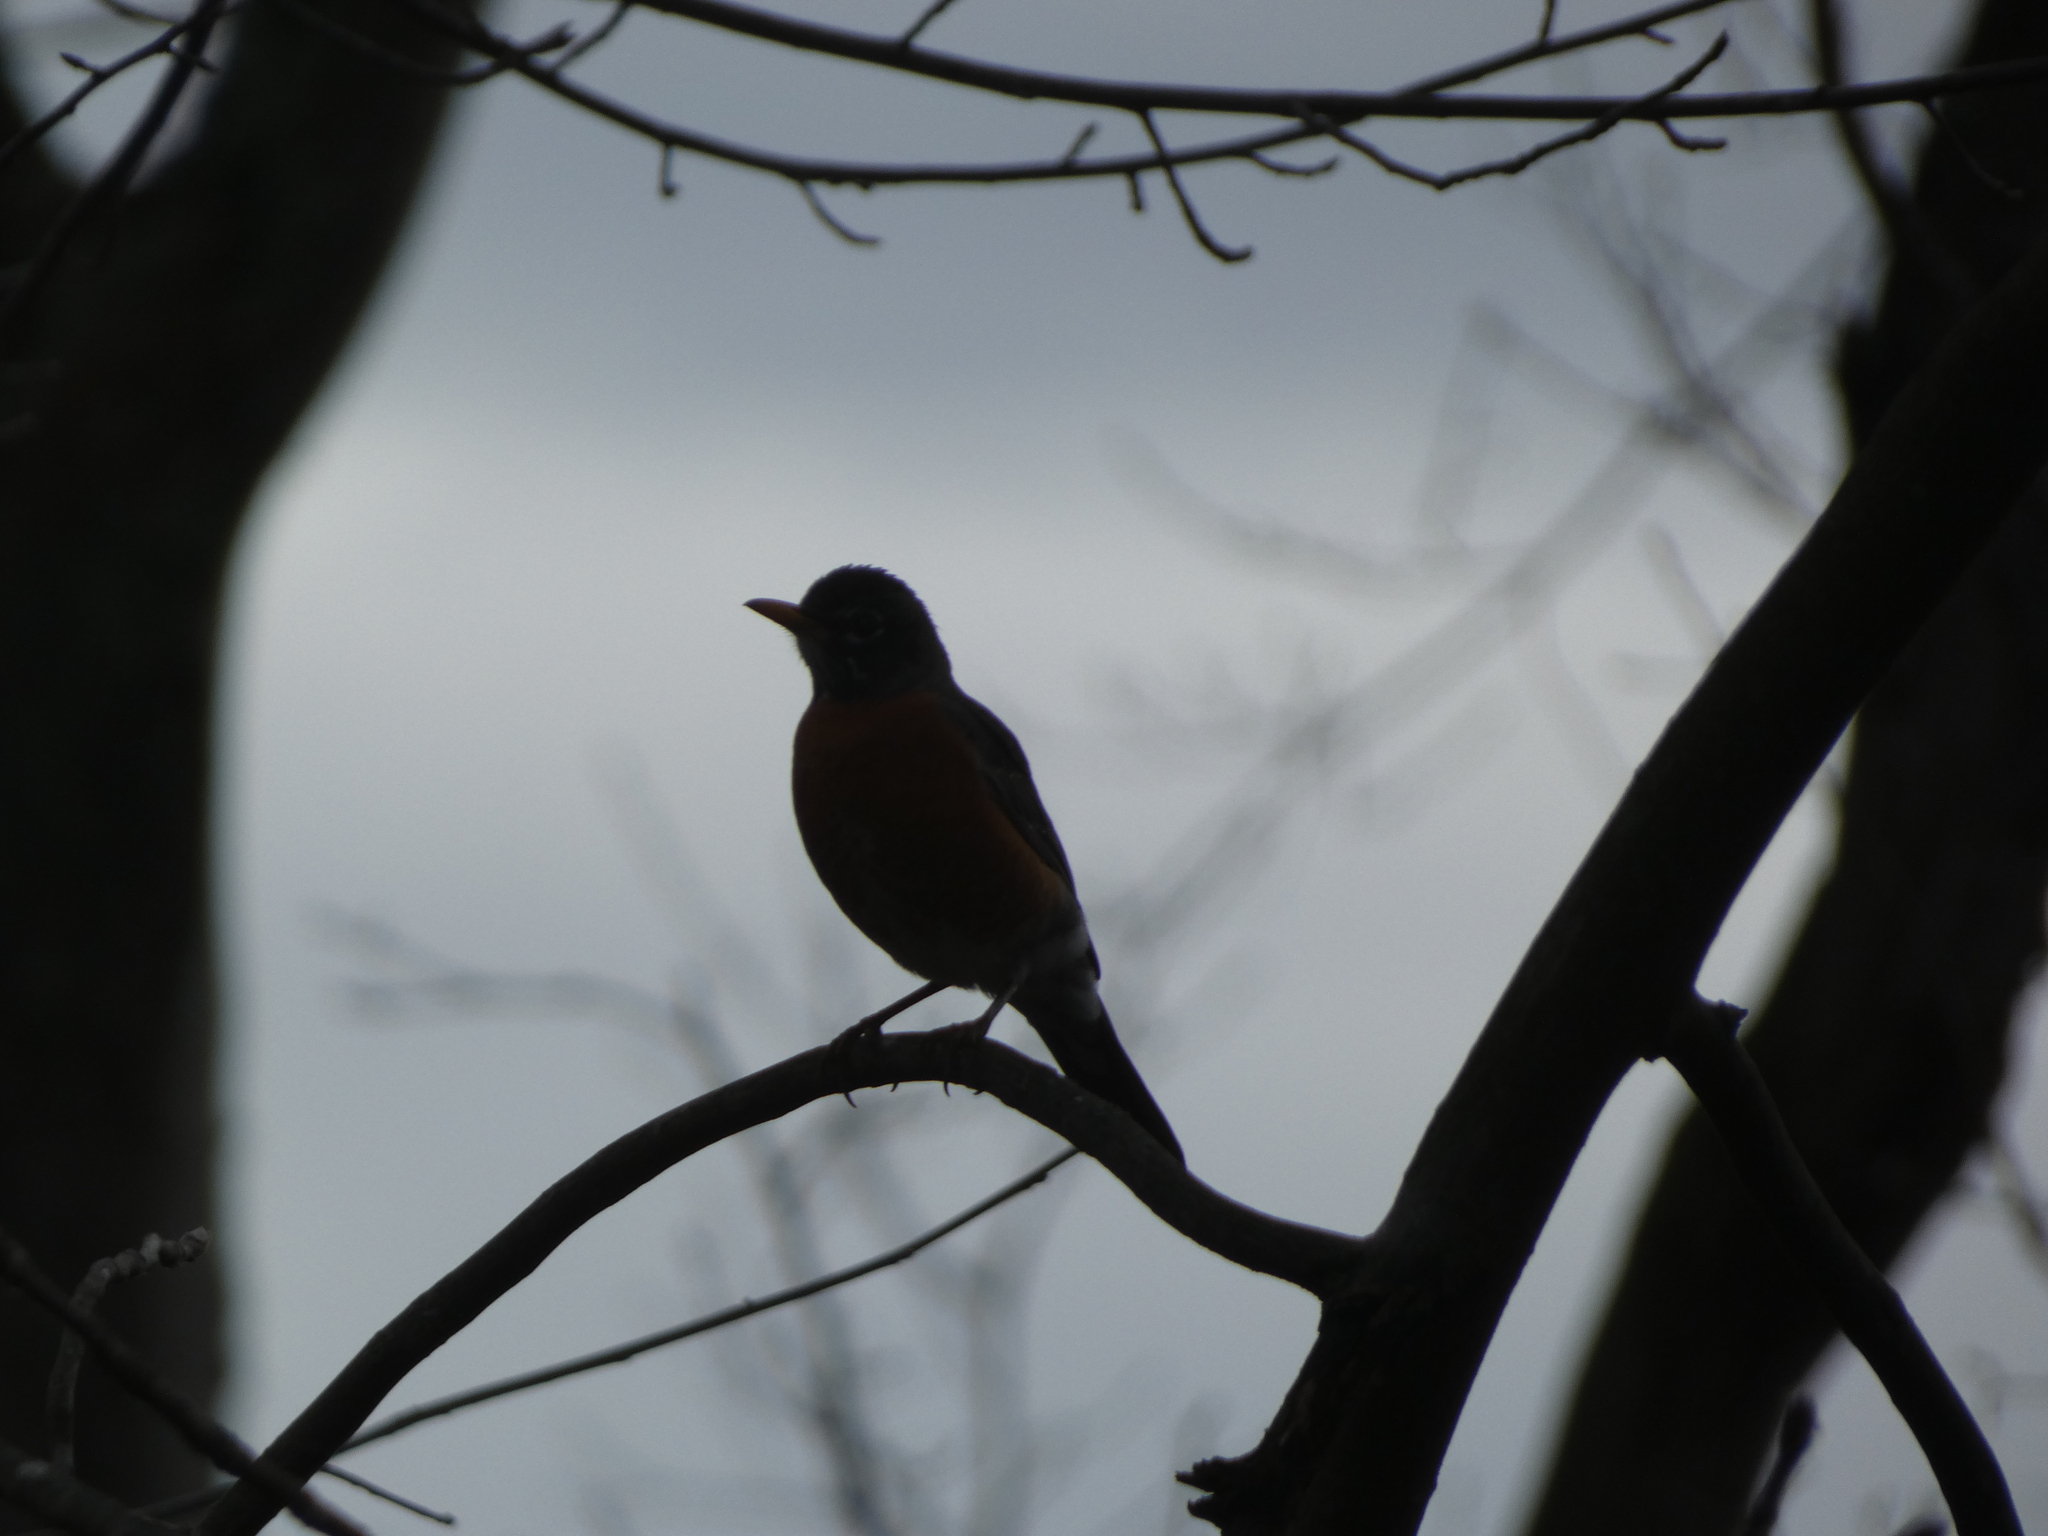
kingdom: Animalia
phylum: Chordata
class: Aves
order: Passeriformes
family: Turdidae
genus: Turdus
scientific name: Turdus migratorius
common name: American robin
